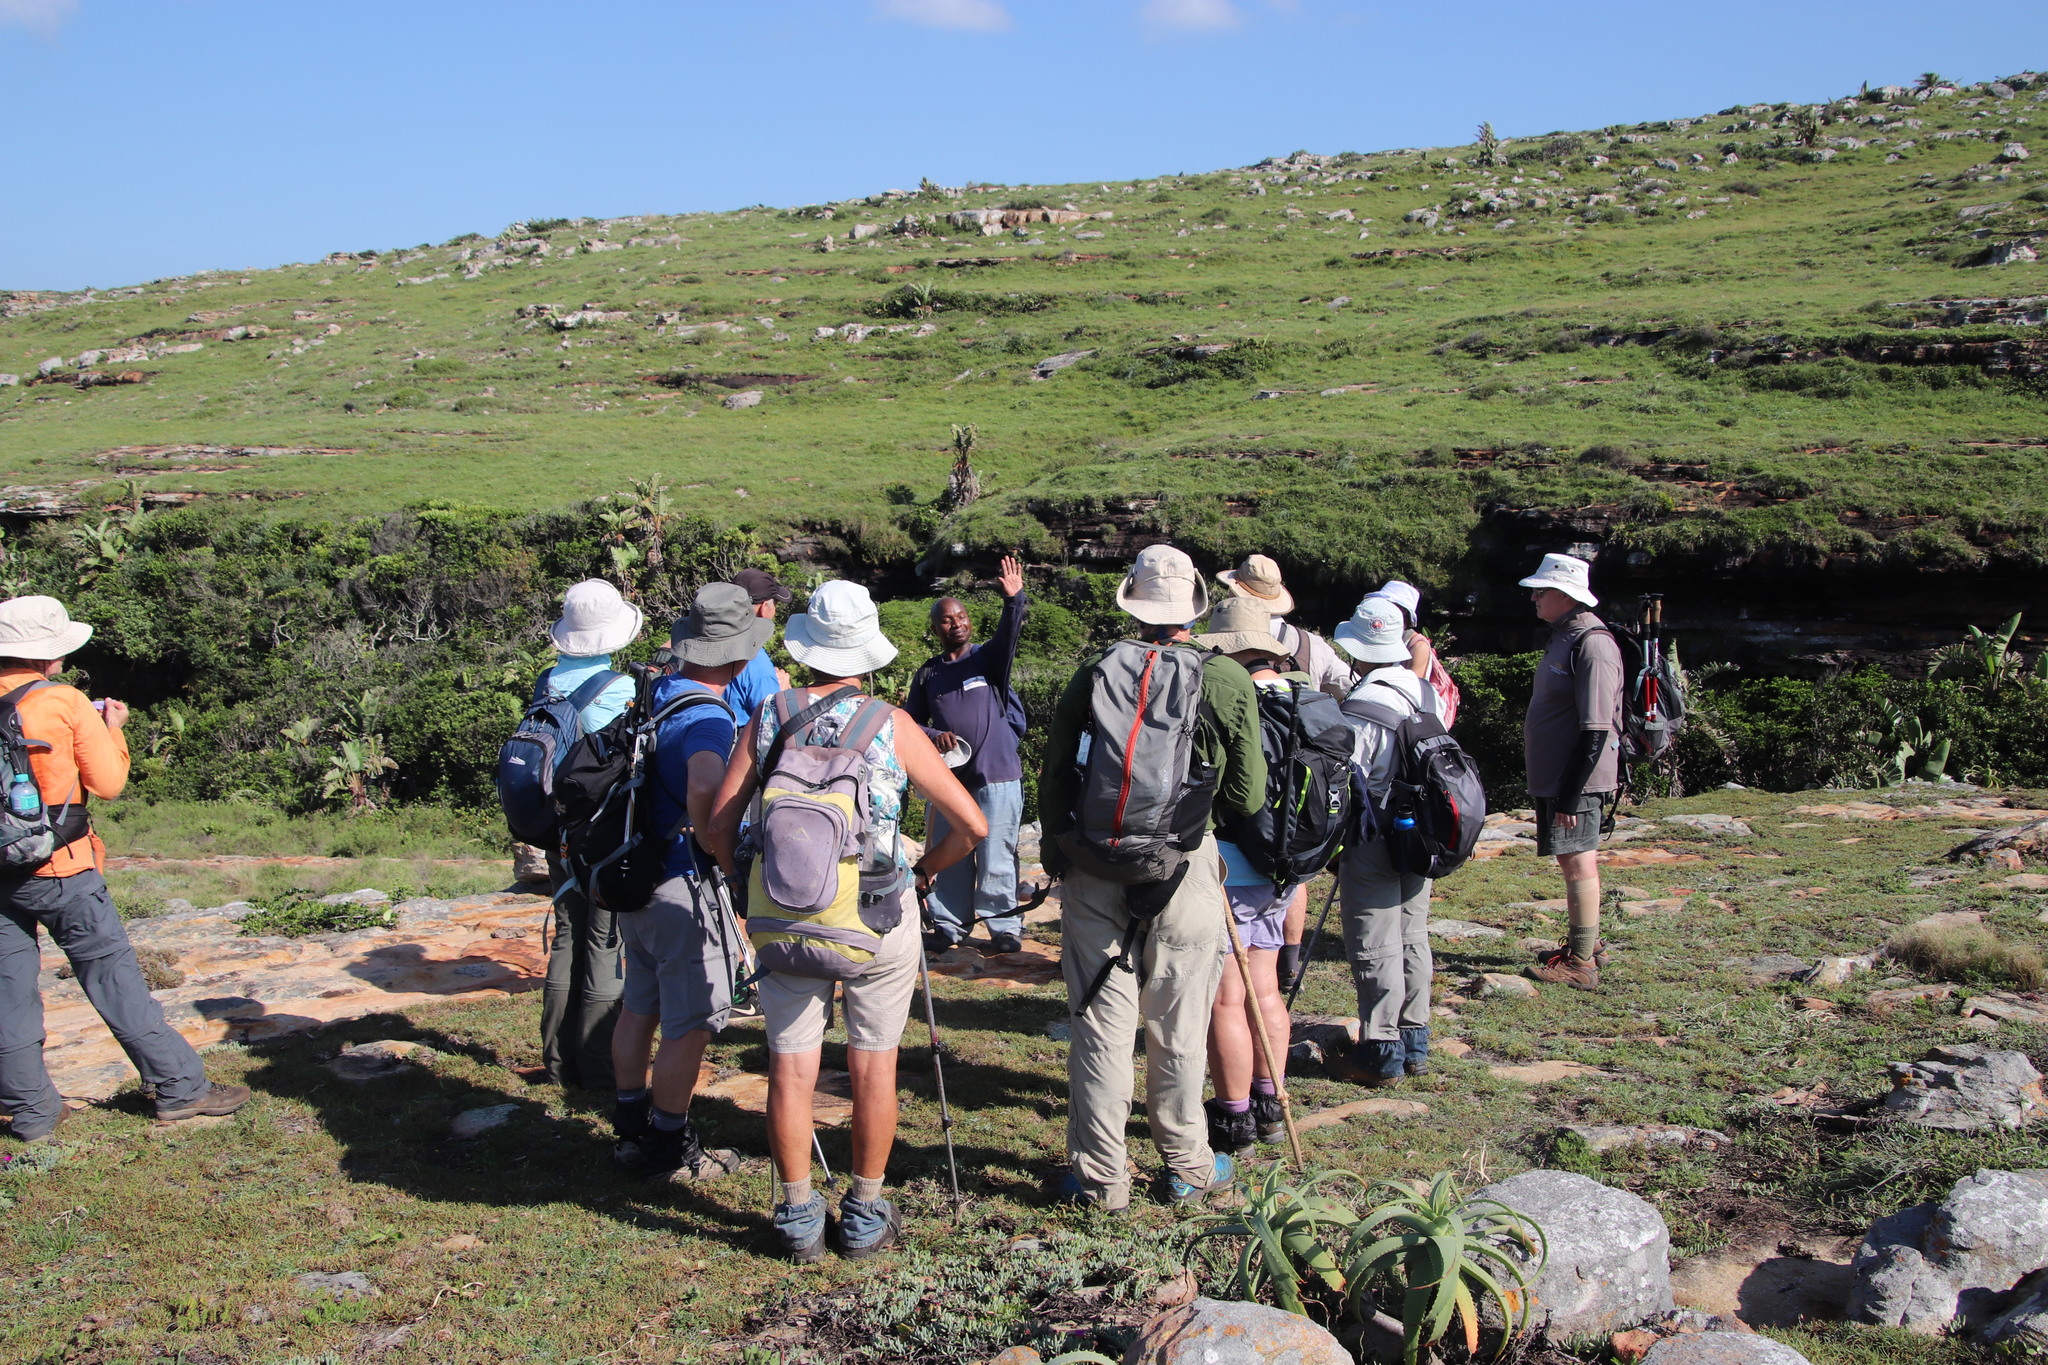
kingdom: Plantae
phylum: Tracheophyta
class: Liliopsida
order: Asparagales
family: Asphodelaceae
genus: Aloe
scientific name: Aloe arborescens
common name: Candelabra aloe
